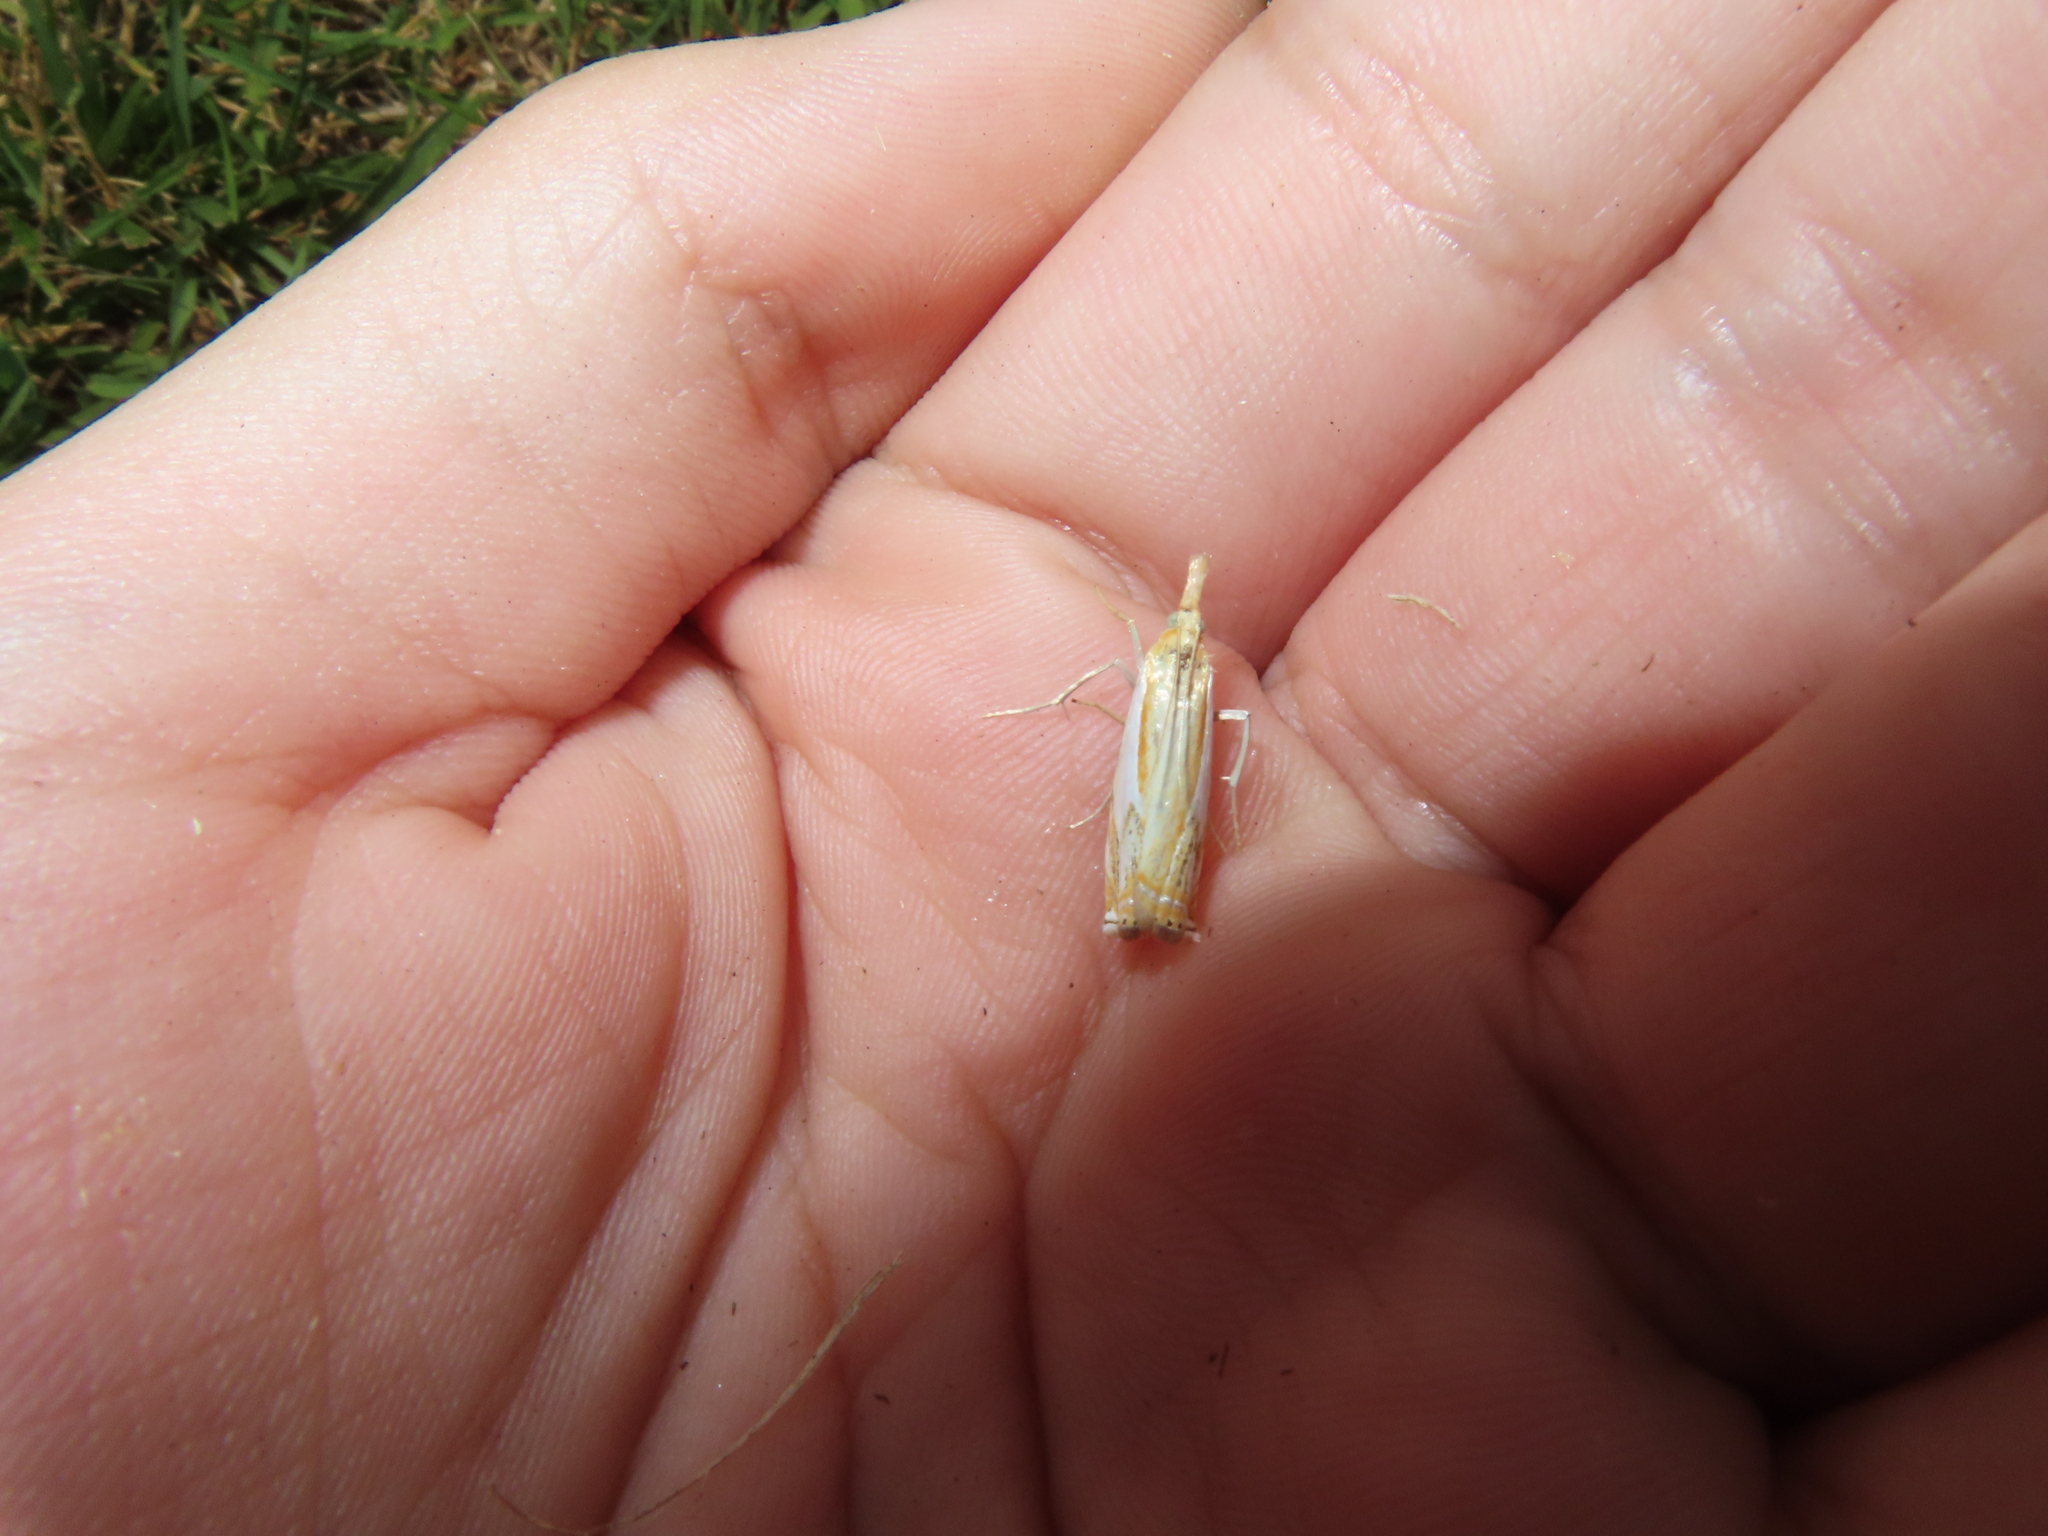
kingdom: Animalia
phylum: Arthropoda
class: Insecta
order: Lepidoptera
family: Crambidae
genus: Crambus
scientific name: Crambus agitatellus
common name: Double-banded grass-veneer
